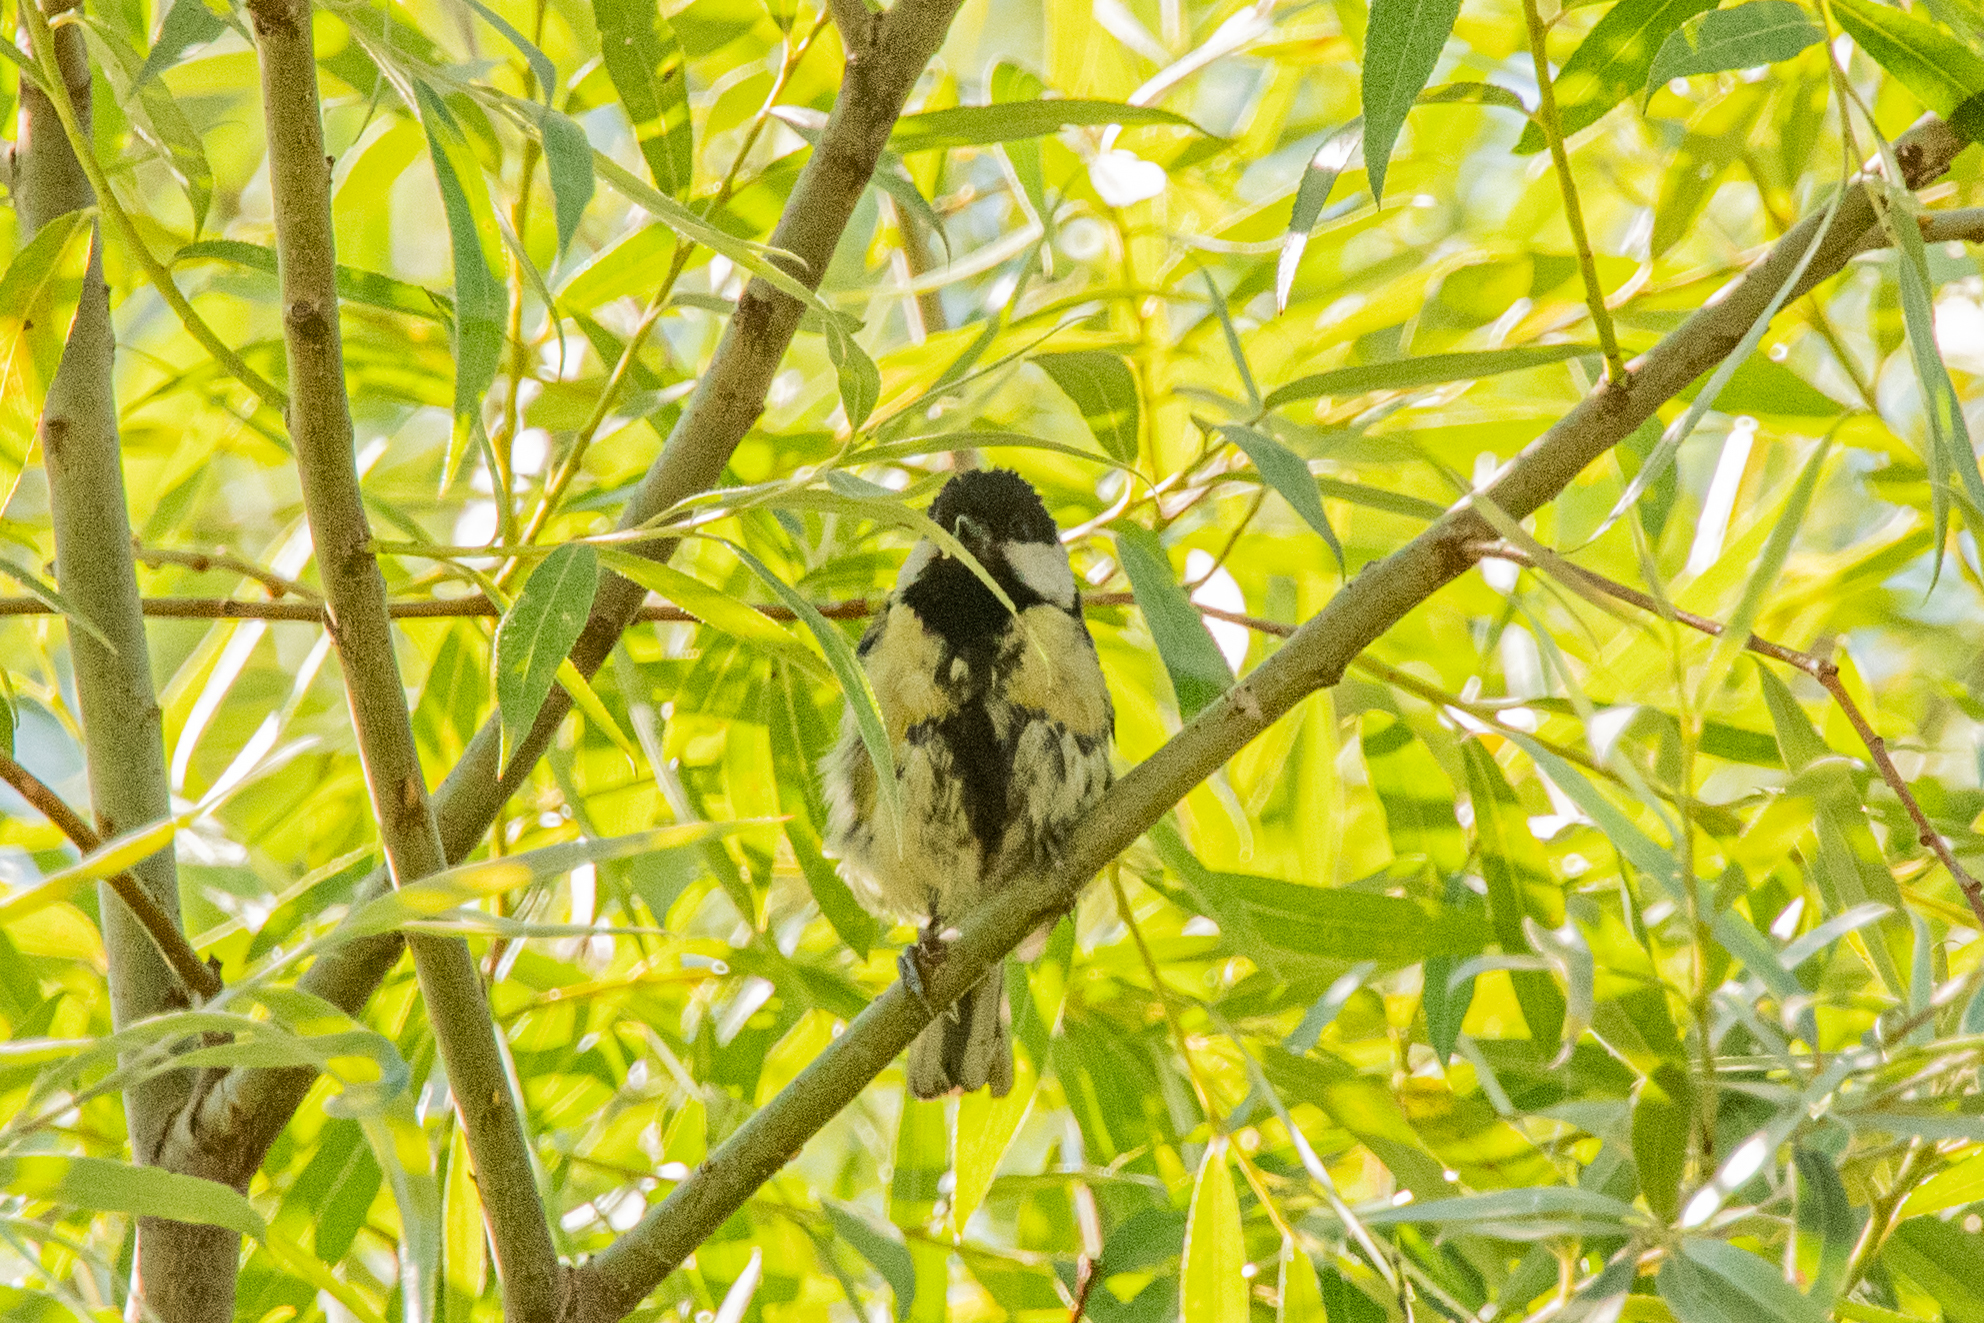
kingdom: Animalia
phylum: Chordata
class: Aves
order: Passeriformes
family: Paridae
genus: Parus
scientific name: Parus major
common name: Great tit
